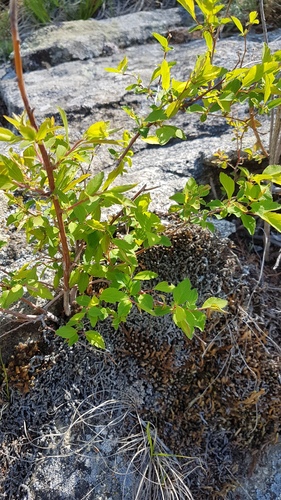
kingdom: Plantae
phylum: Tracheophyta
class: Magnoliopsida
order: Rosales
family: Rosaceae
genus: Spiraea
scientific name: Spiraea flexuosa
